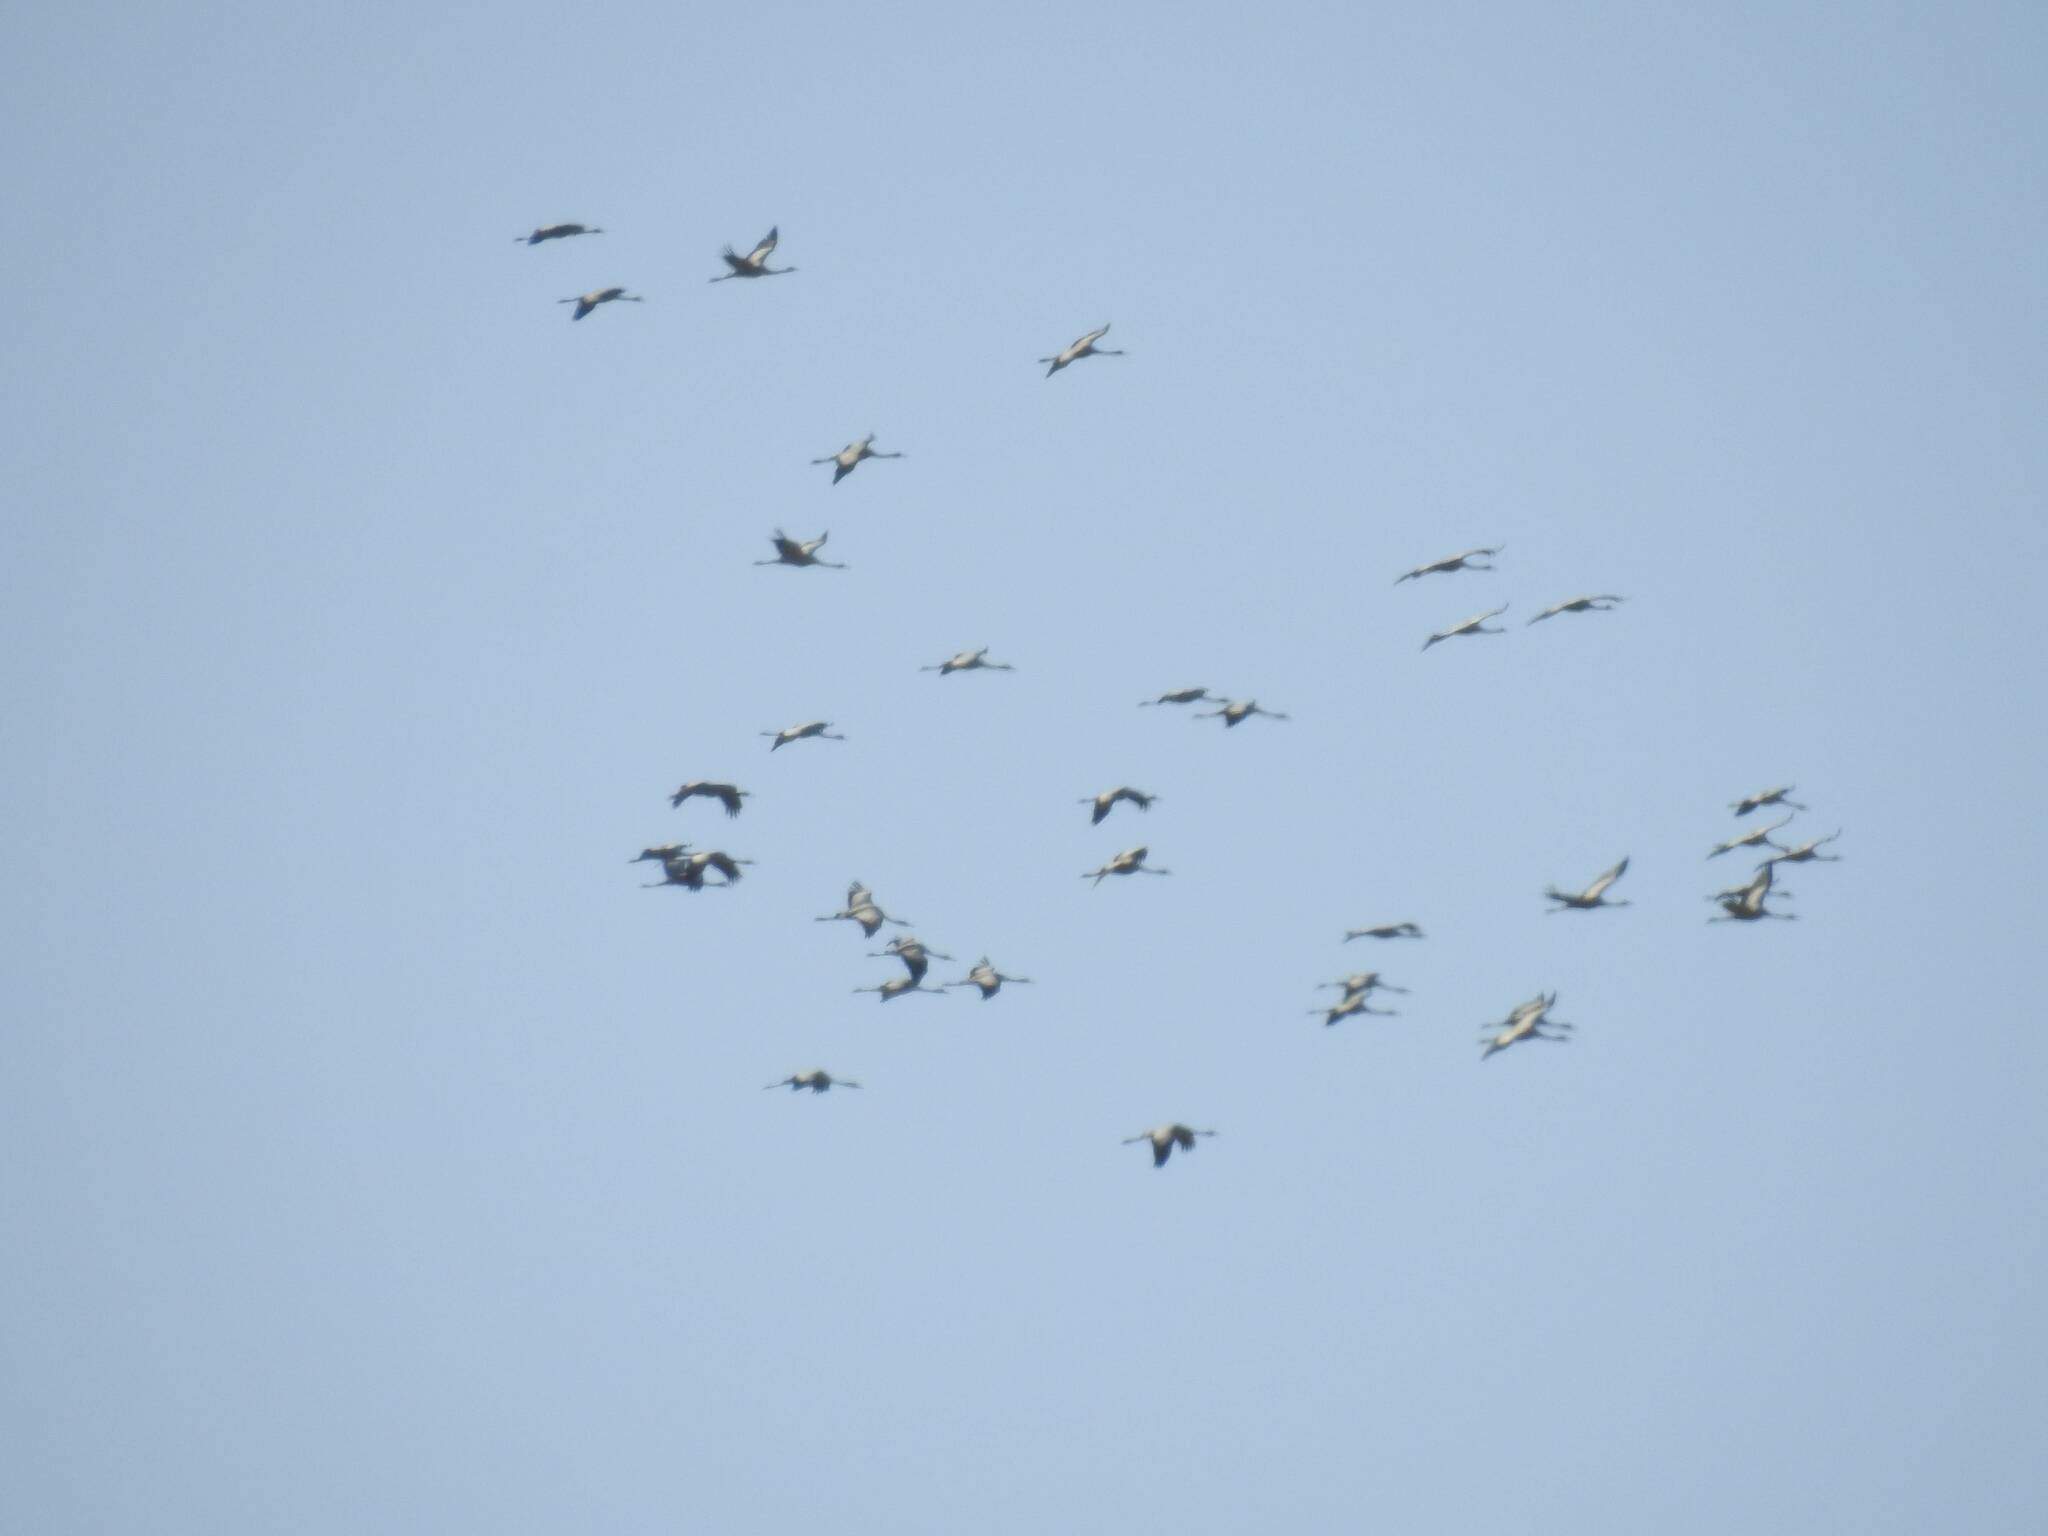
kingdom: Animalia
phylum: Chordata
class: Aves
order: Gruiformes
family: Gruidae
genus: Grus
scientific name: Grus grus
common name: Common crane
